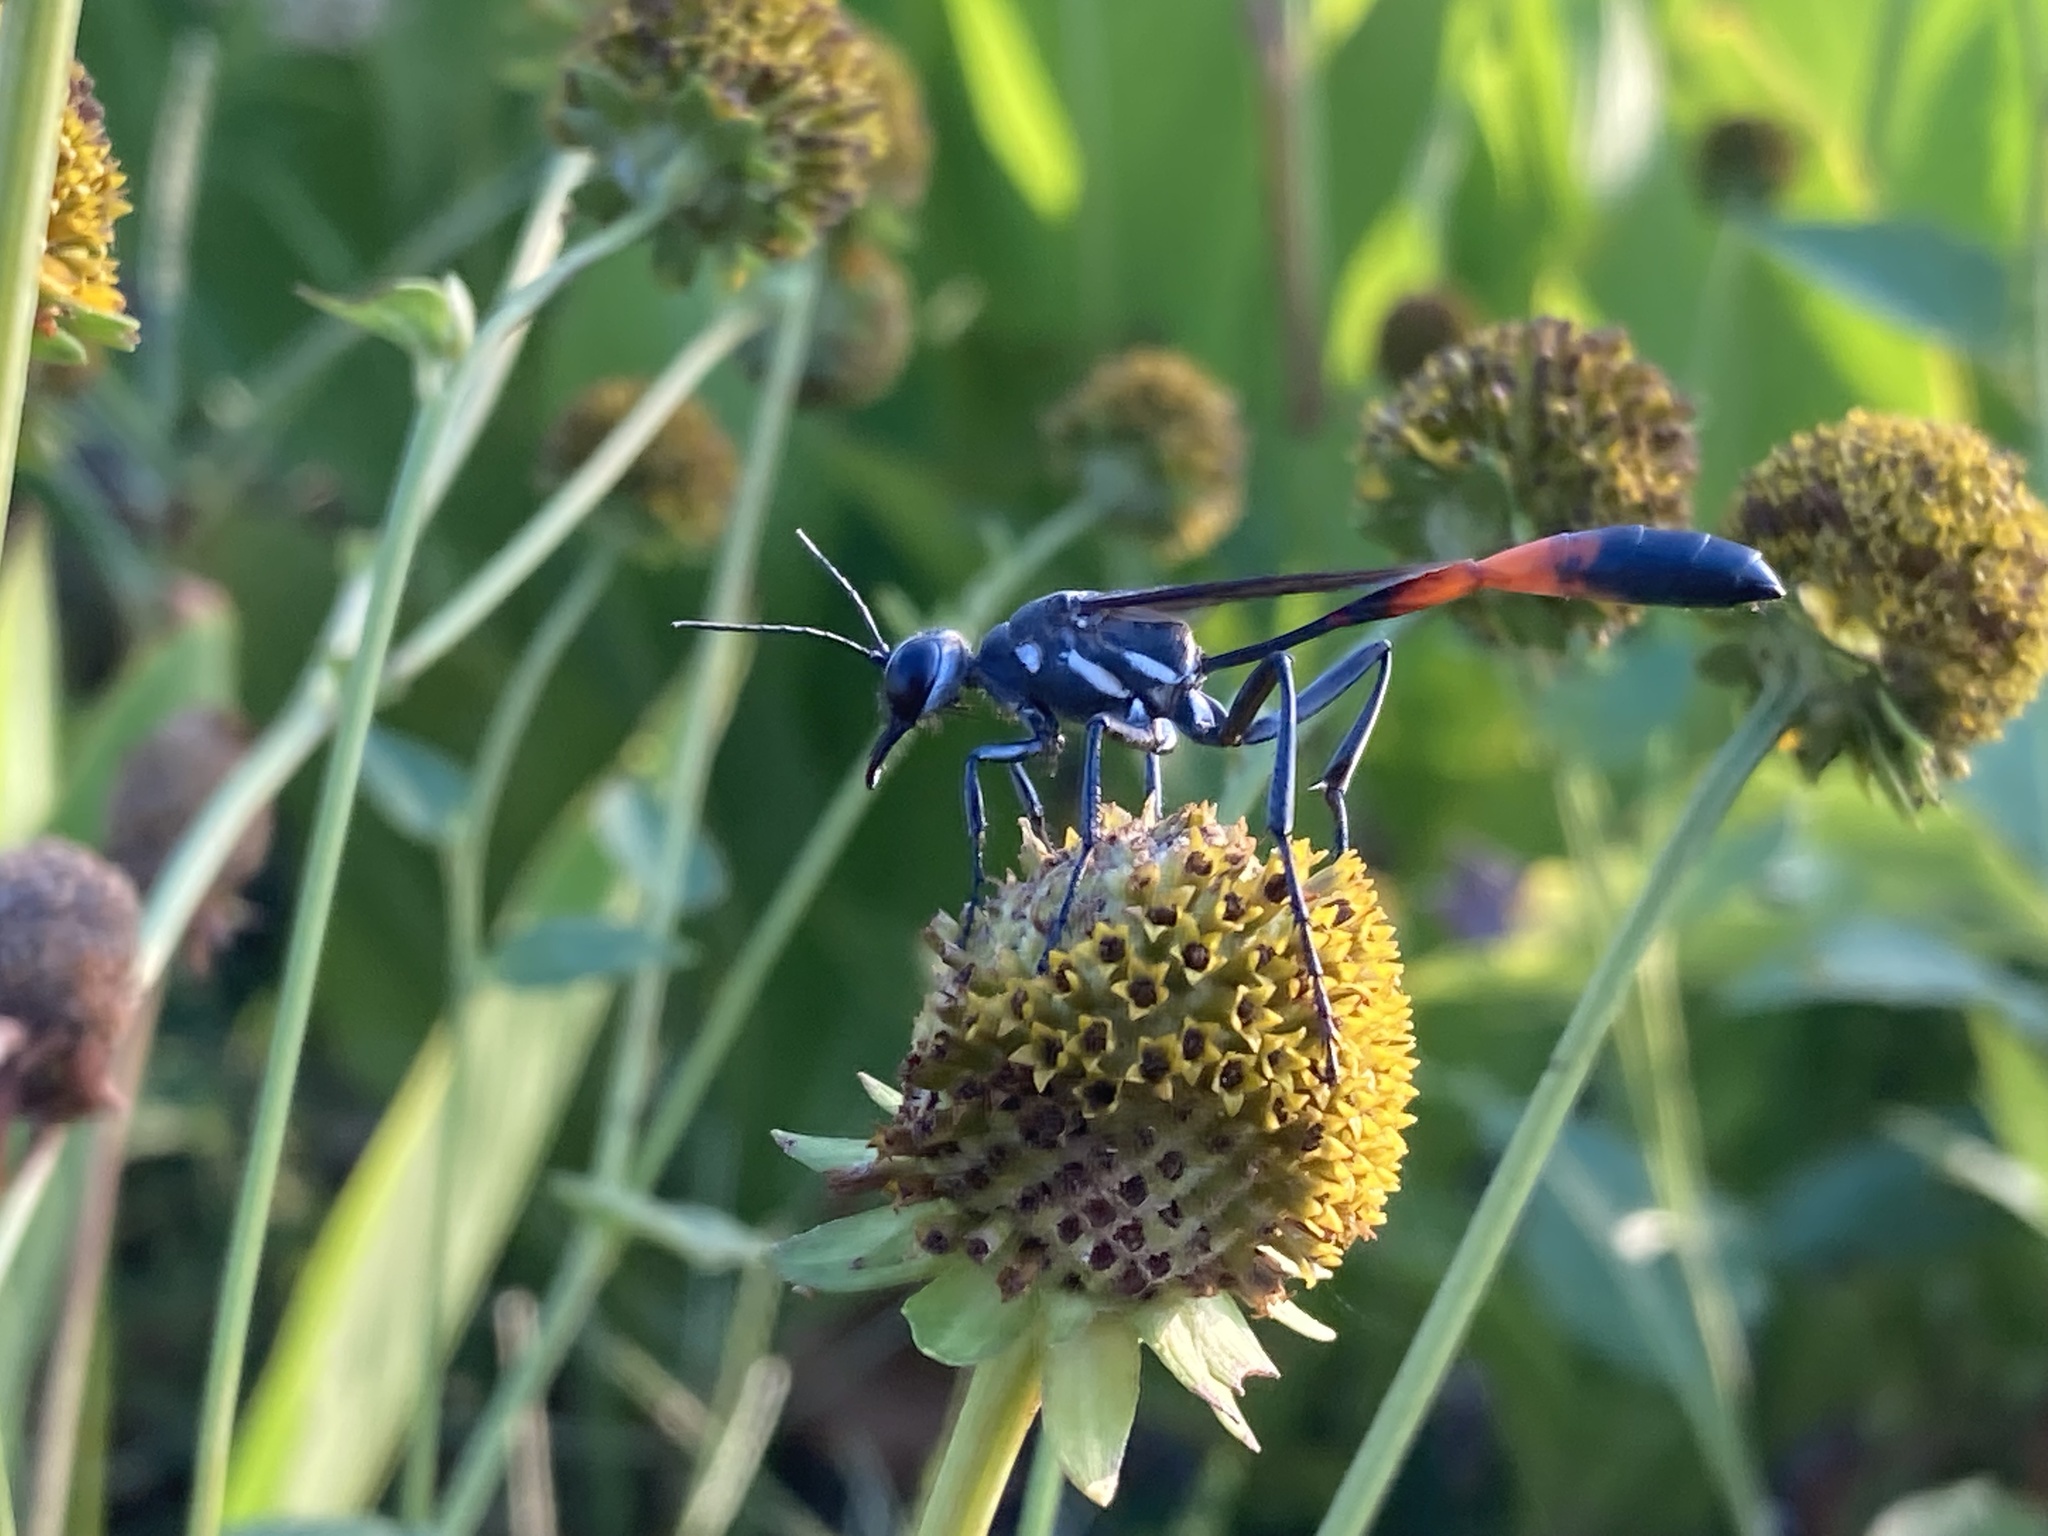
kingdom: Animalia
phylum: Arthropoda
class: Insecta
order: Hymenoptera
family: Sphecidae
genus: Ammophila
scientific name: Ammophila procera
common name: Common thread-waisted wasp
